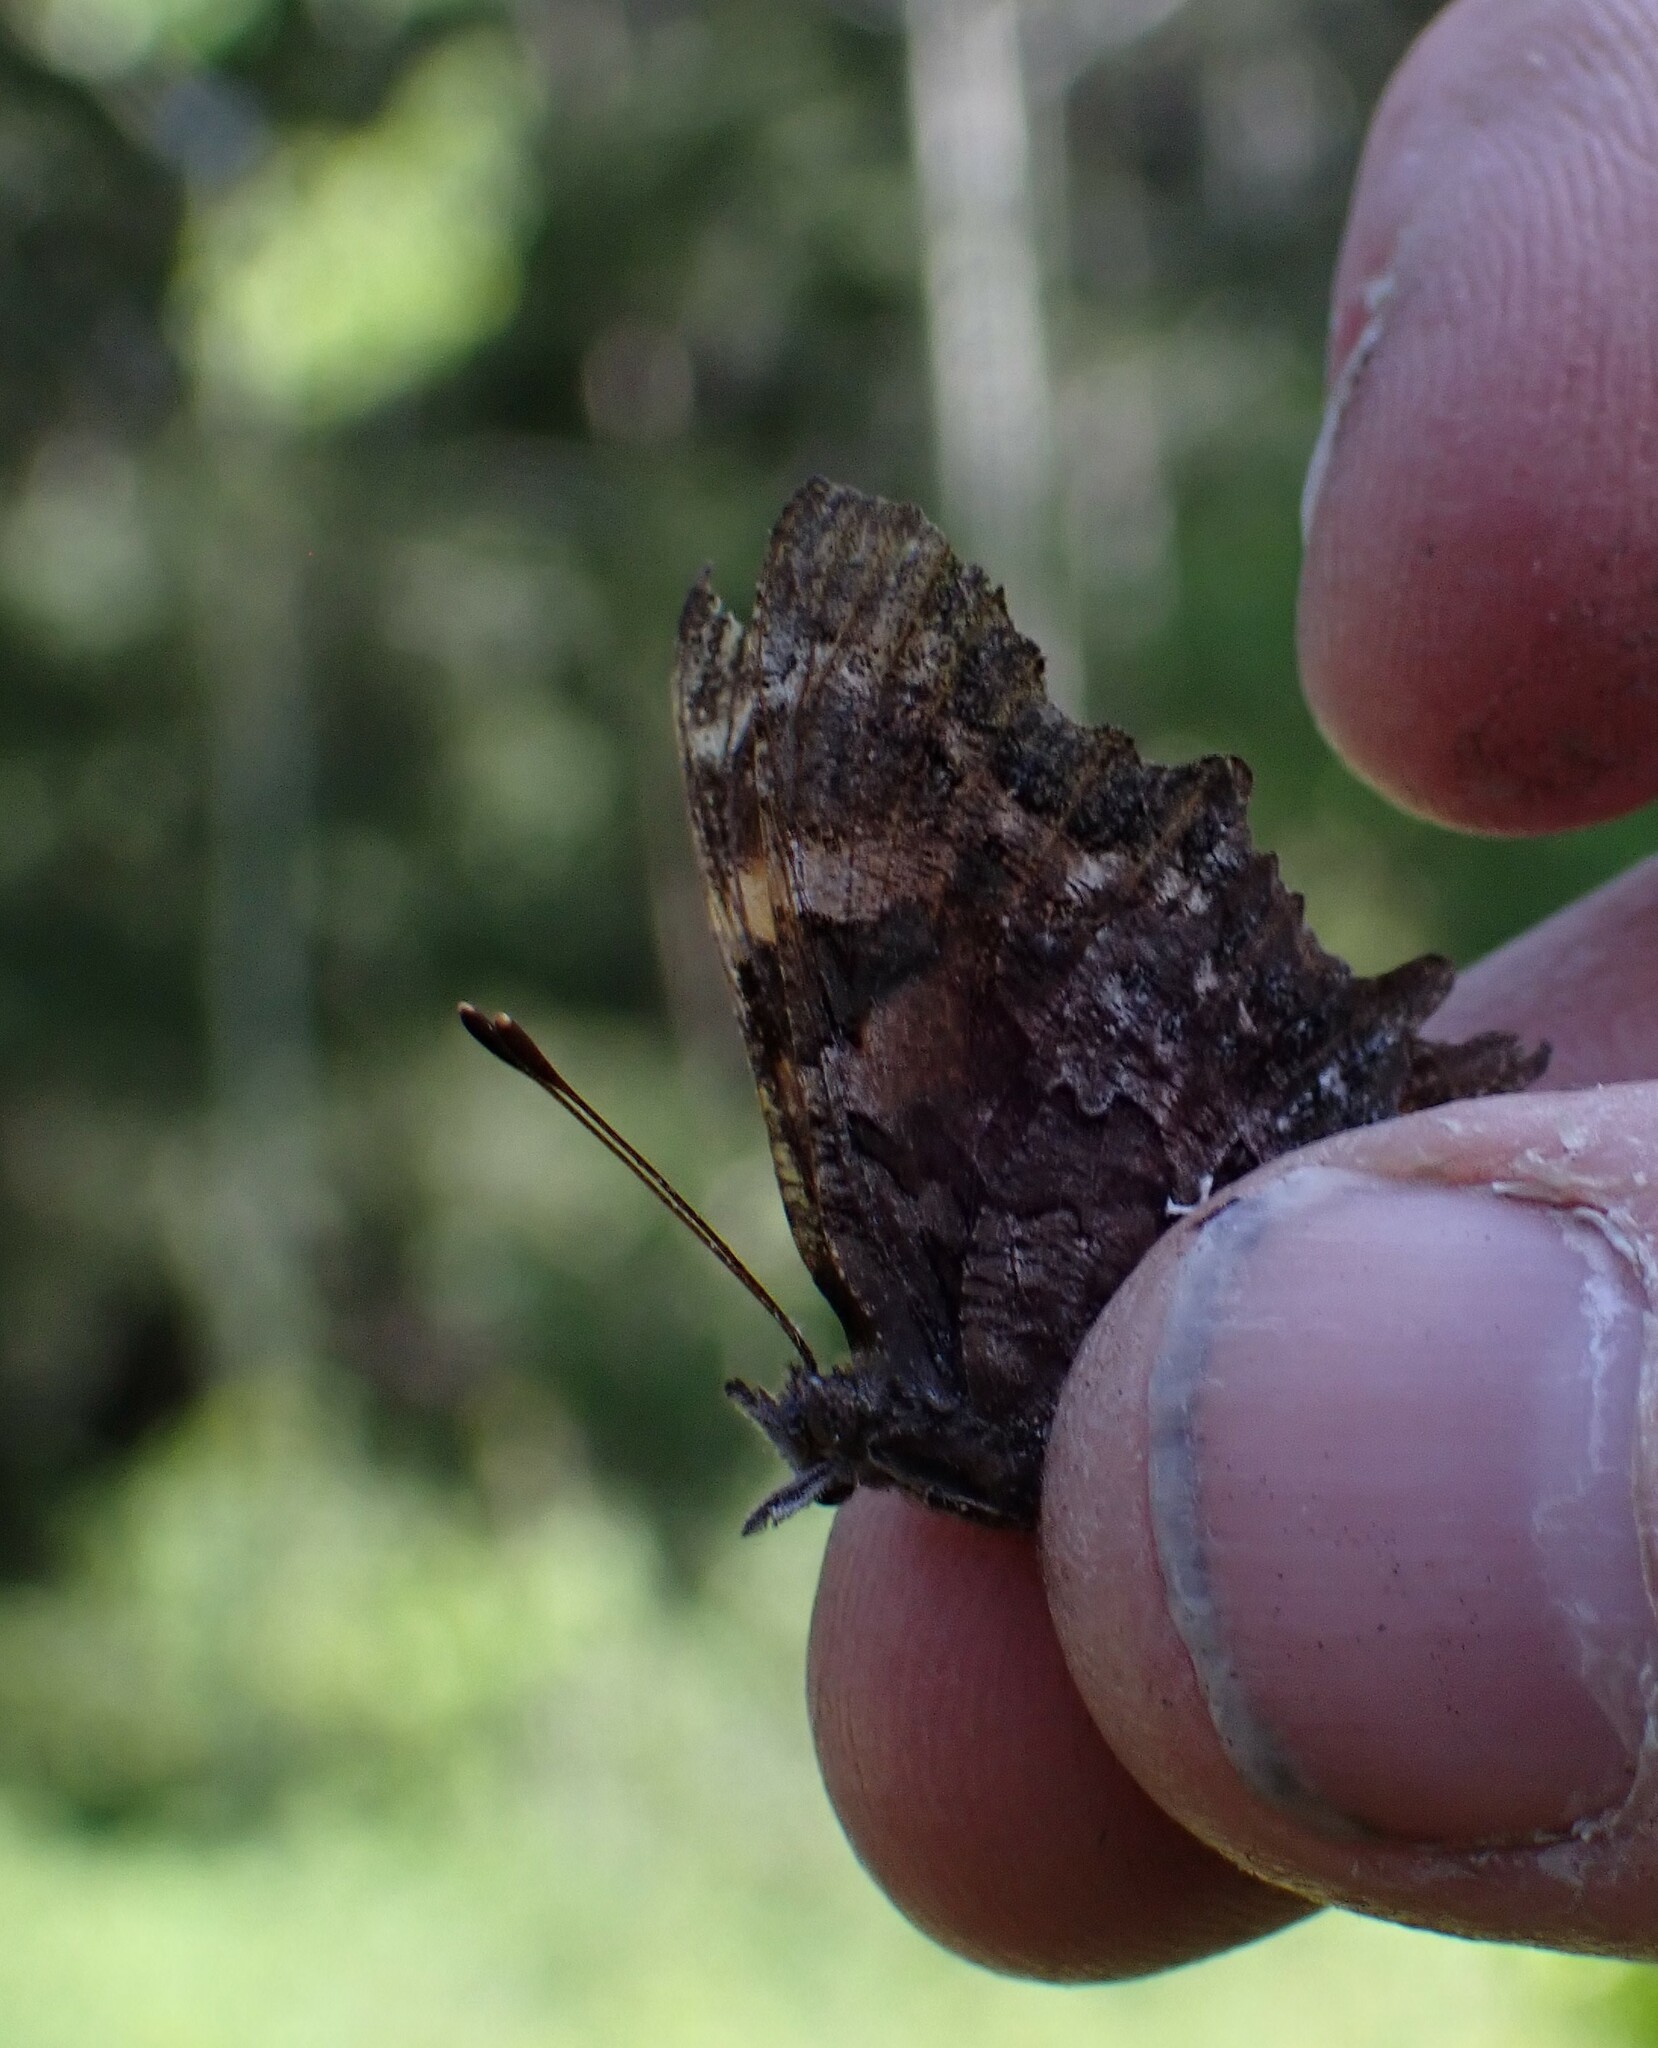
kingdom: Animalia
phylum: Arthropoda
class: Insecta
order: Lepidoptera
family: Nymphalidae
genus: Polygonia
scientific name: Polygonia faunus
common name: Green comma
